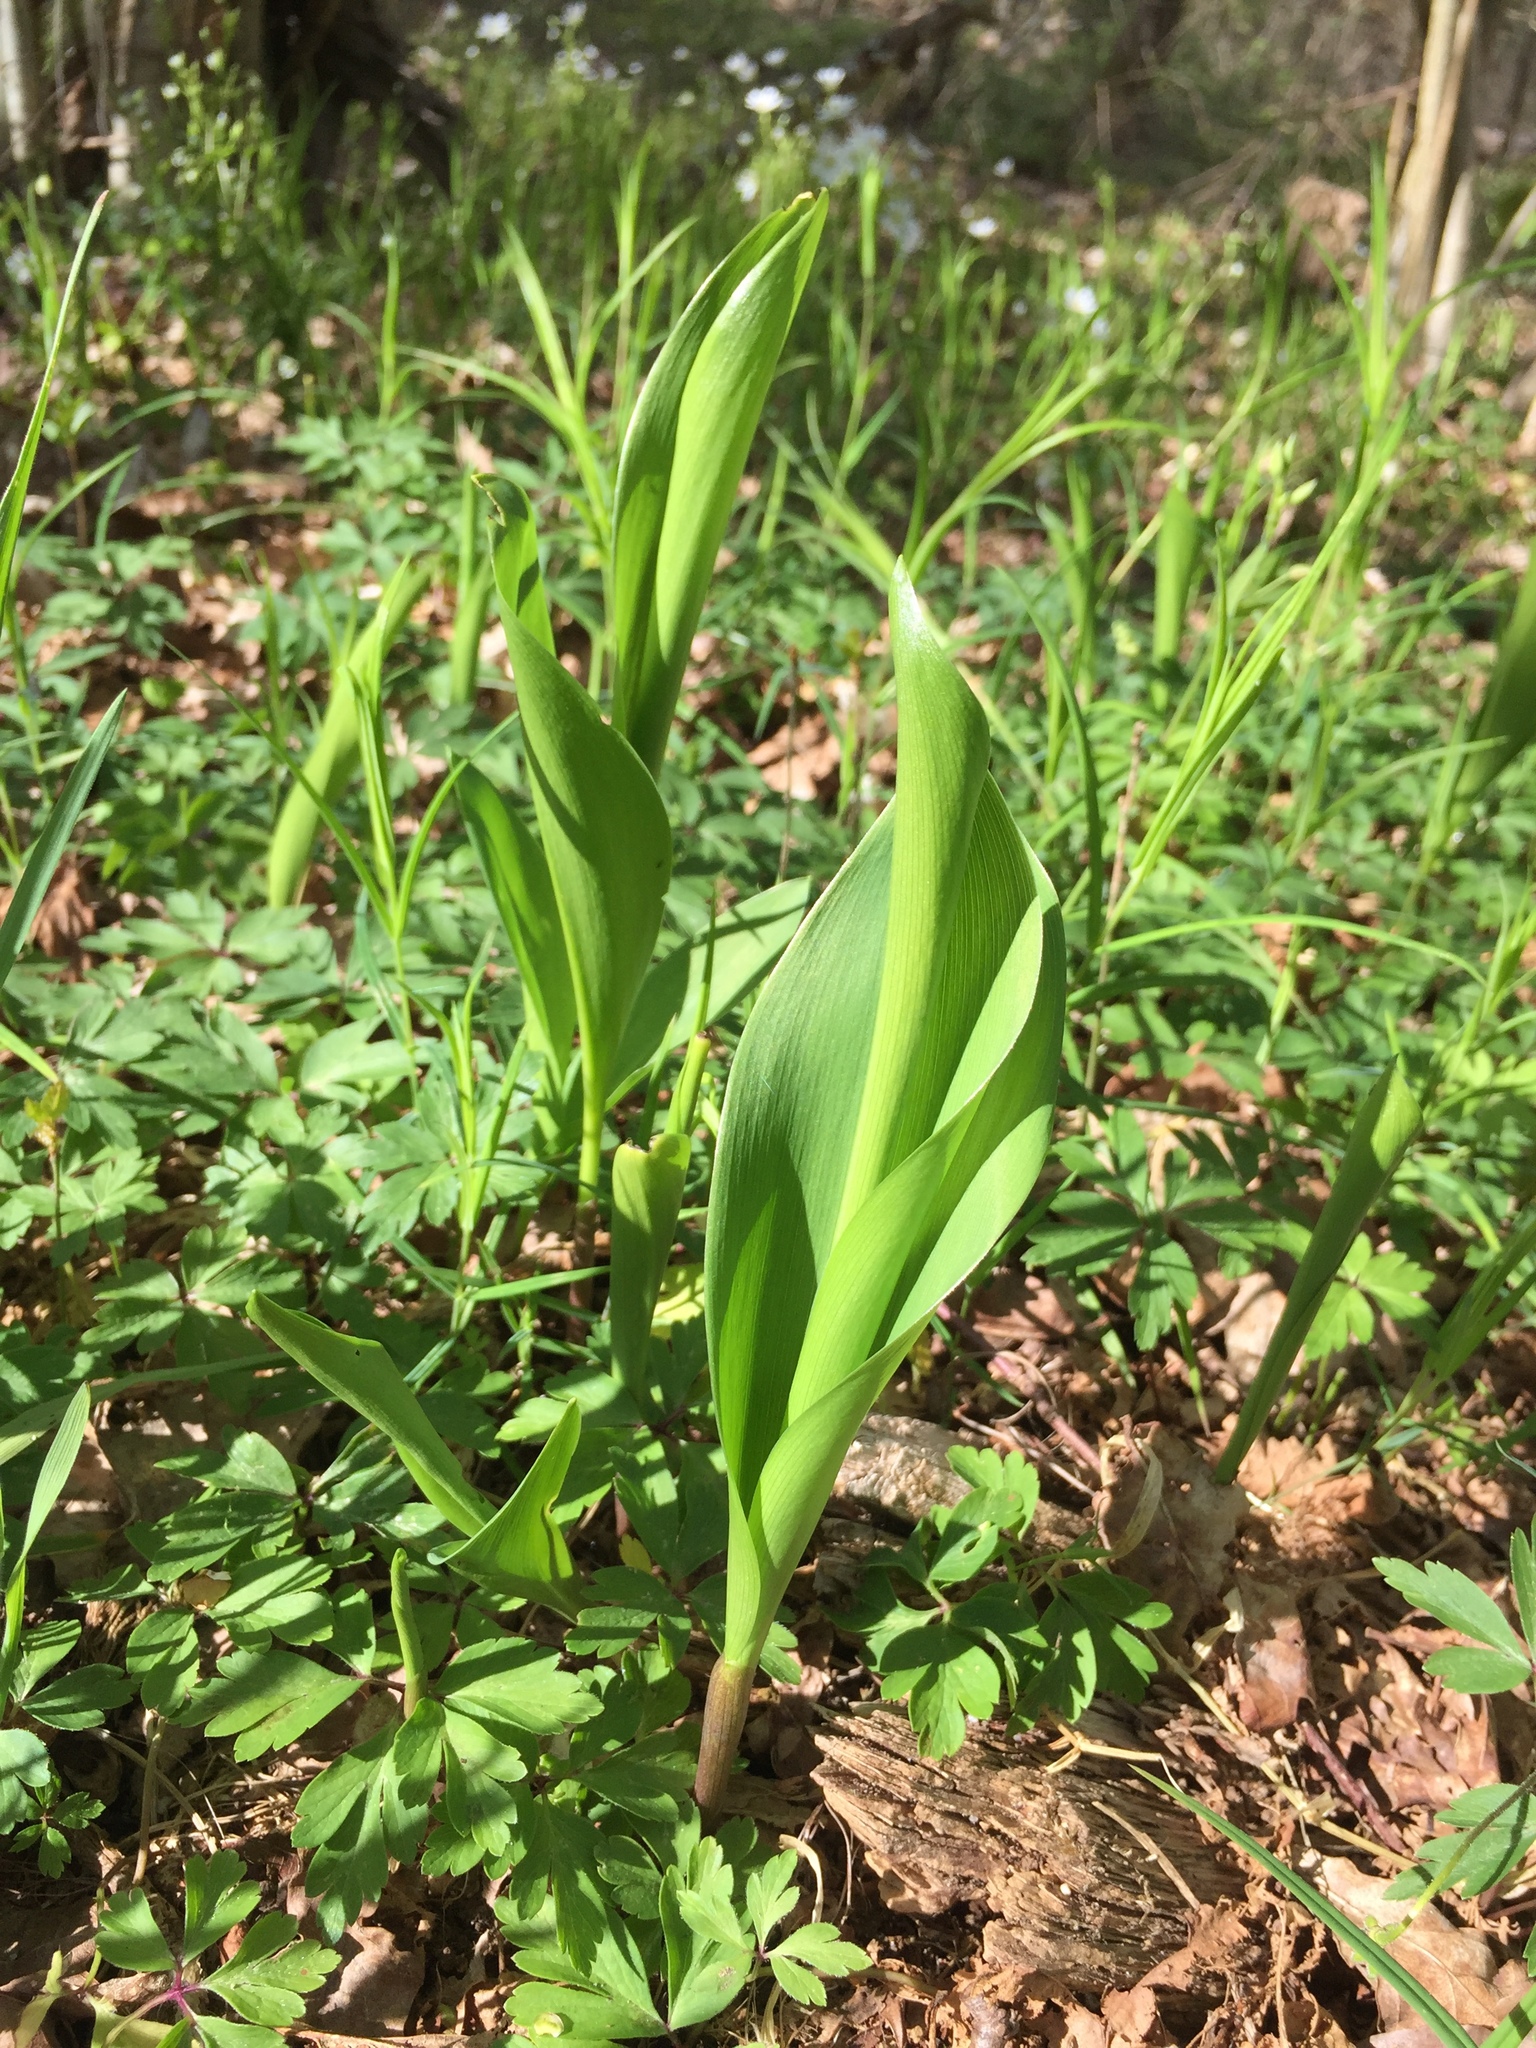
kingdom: Plantae
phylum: Tracheophyta
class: Liliopsida
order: Asparagales
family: Asparagaceae
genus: Convallaria
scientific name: Convallaria majalis
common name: Lily-of-the-valley
